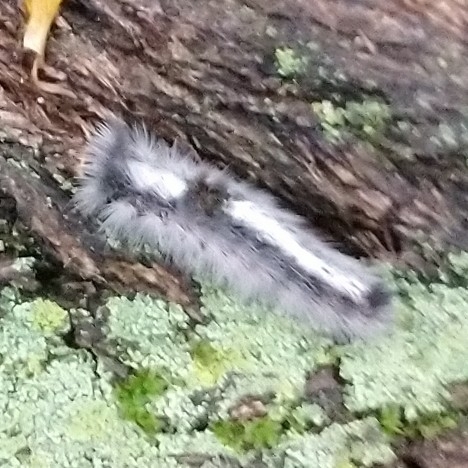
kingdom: Animalia
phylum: Arthropoda
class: Insecta
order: Lepidoptera
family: Erebidae
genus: Euproctis
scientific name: Euproctis bicolor
